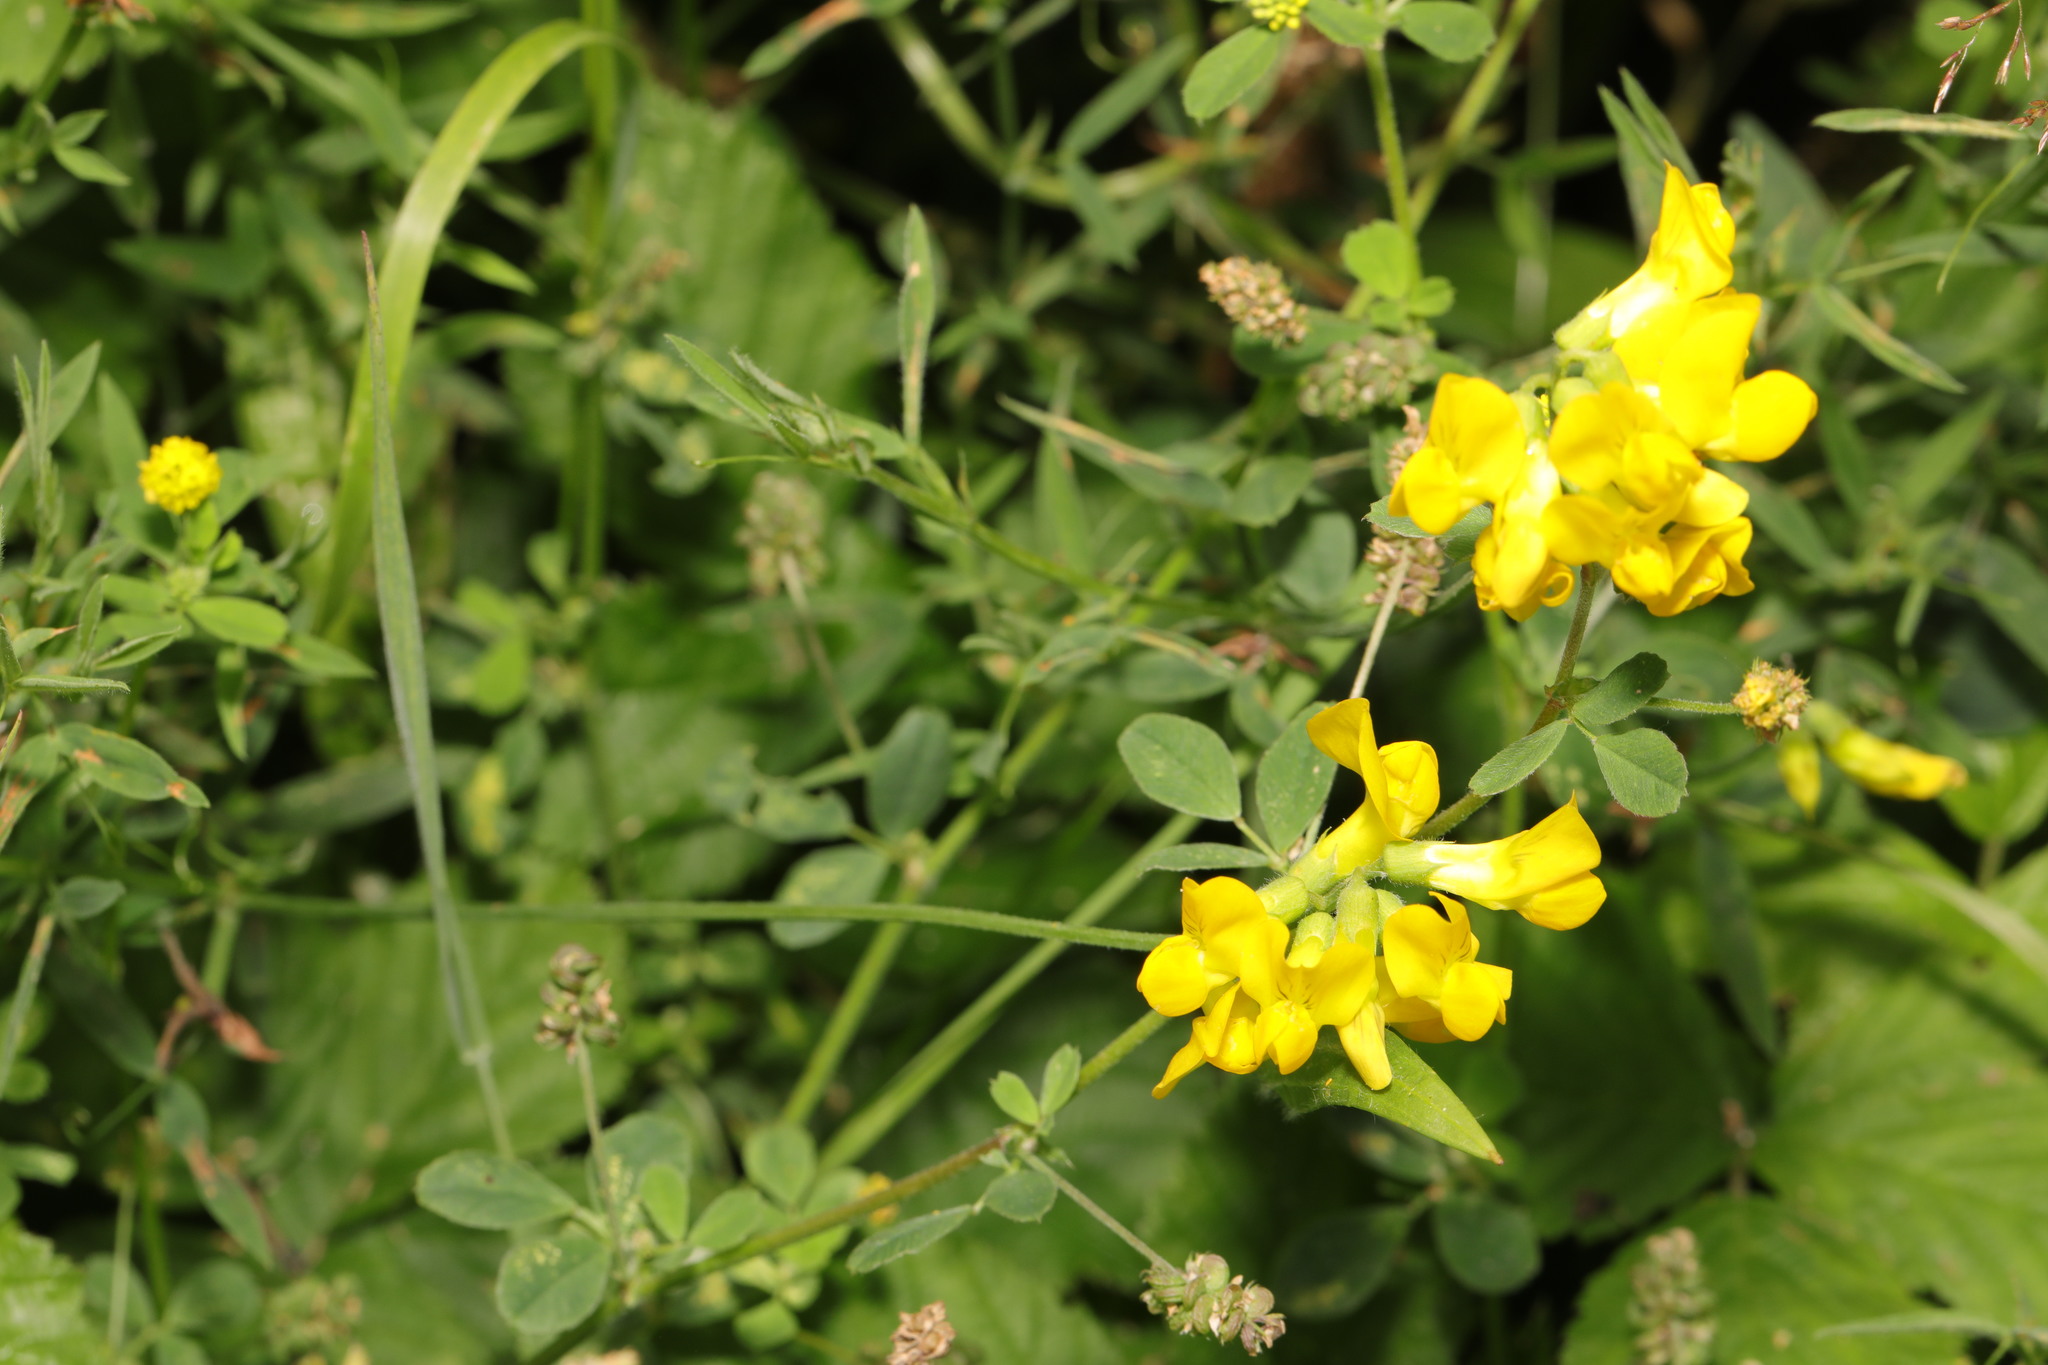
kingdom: Plantae
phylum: Tracheophyta
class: Magnoliopsida
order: Fabales
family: Fabaceae
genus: Lotus
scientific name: Lotus corniculatus
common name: Common bird's-foot-trefoil
